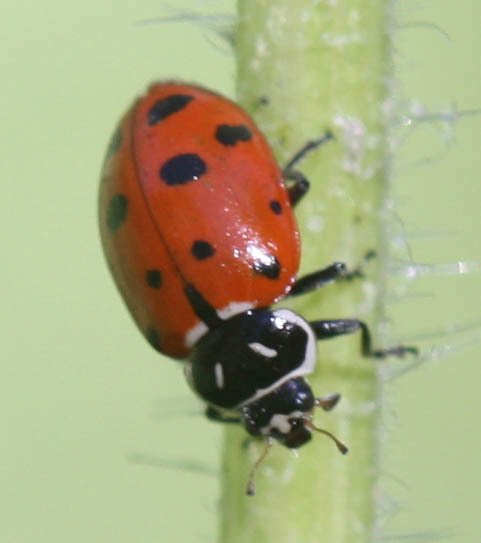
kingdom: Animalia
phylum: Arthropoda
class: Insecta
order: Coleoptera
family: Coccinellidae
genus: Hippodamia
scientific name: Hippodamia convergens
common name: Convergent lady beetle
